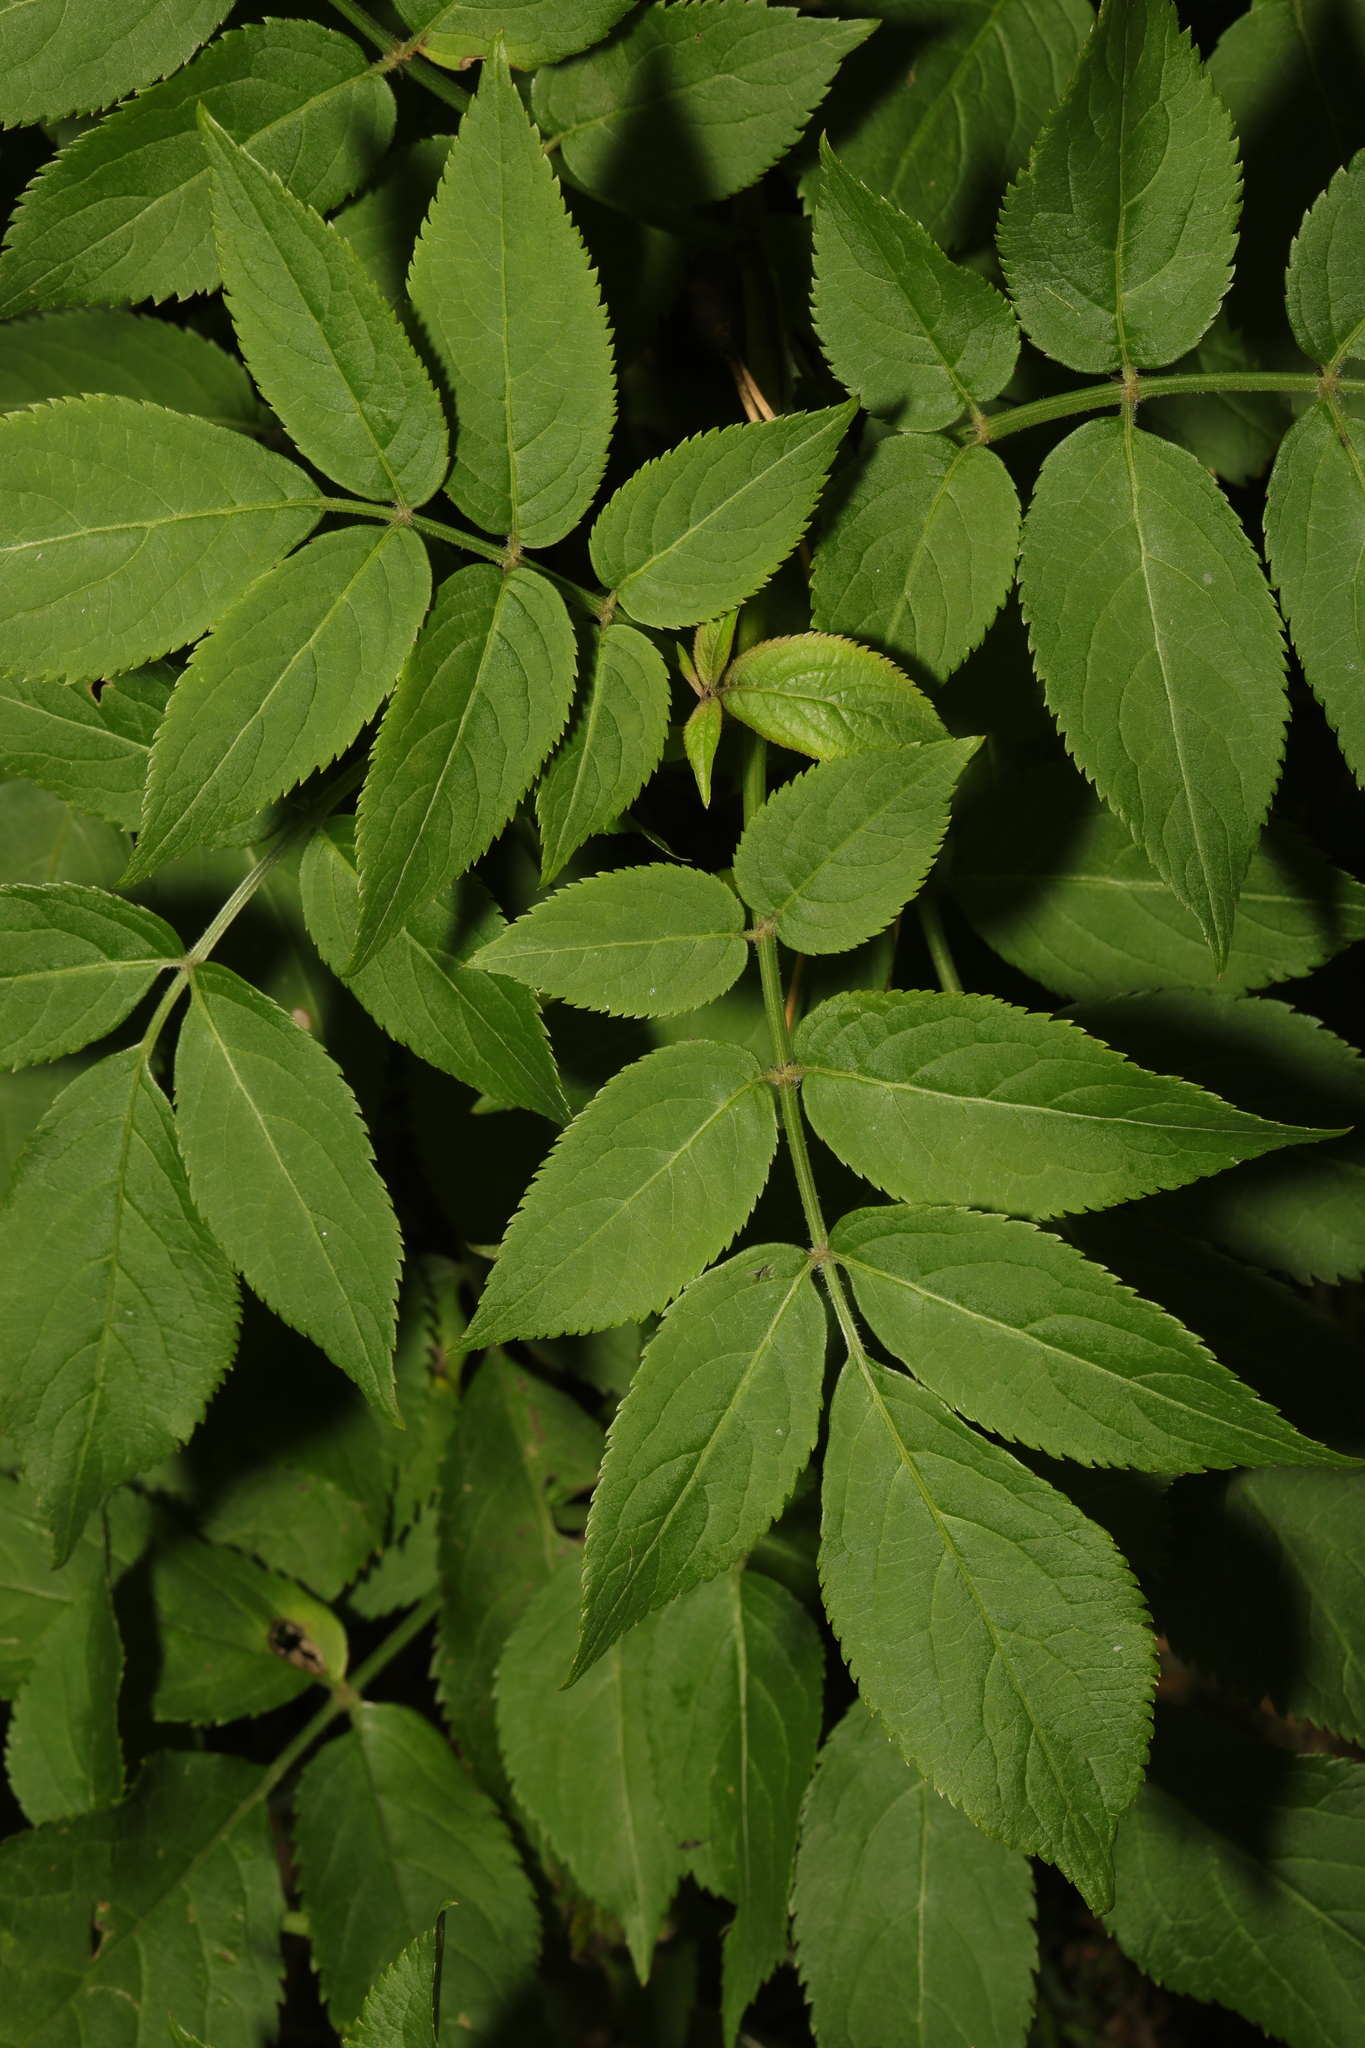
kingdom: Plantae
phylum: Tracheophyta
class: Magnoliopsida
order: Dipsacales
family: Viburnaceae
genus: Sambucus
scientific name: Sambucus nigra
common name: Elder
